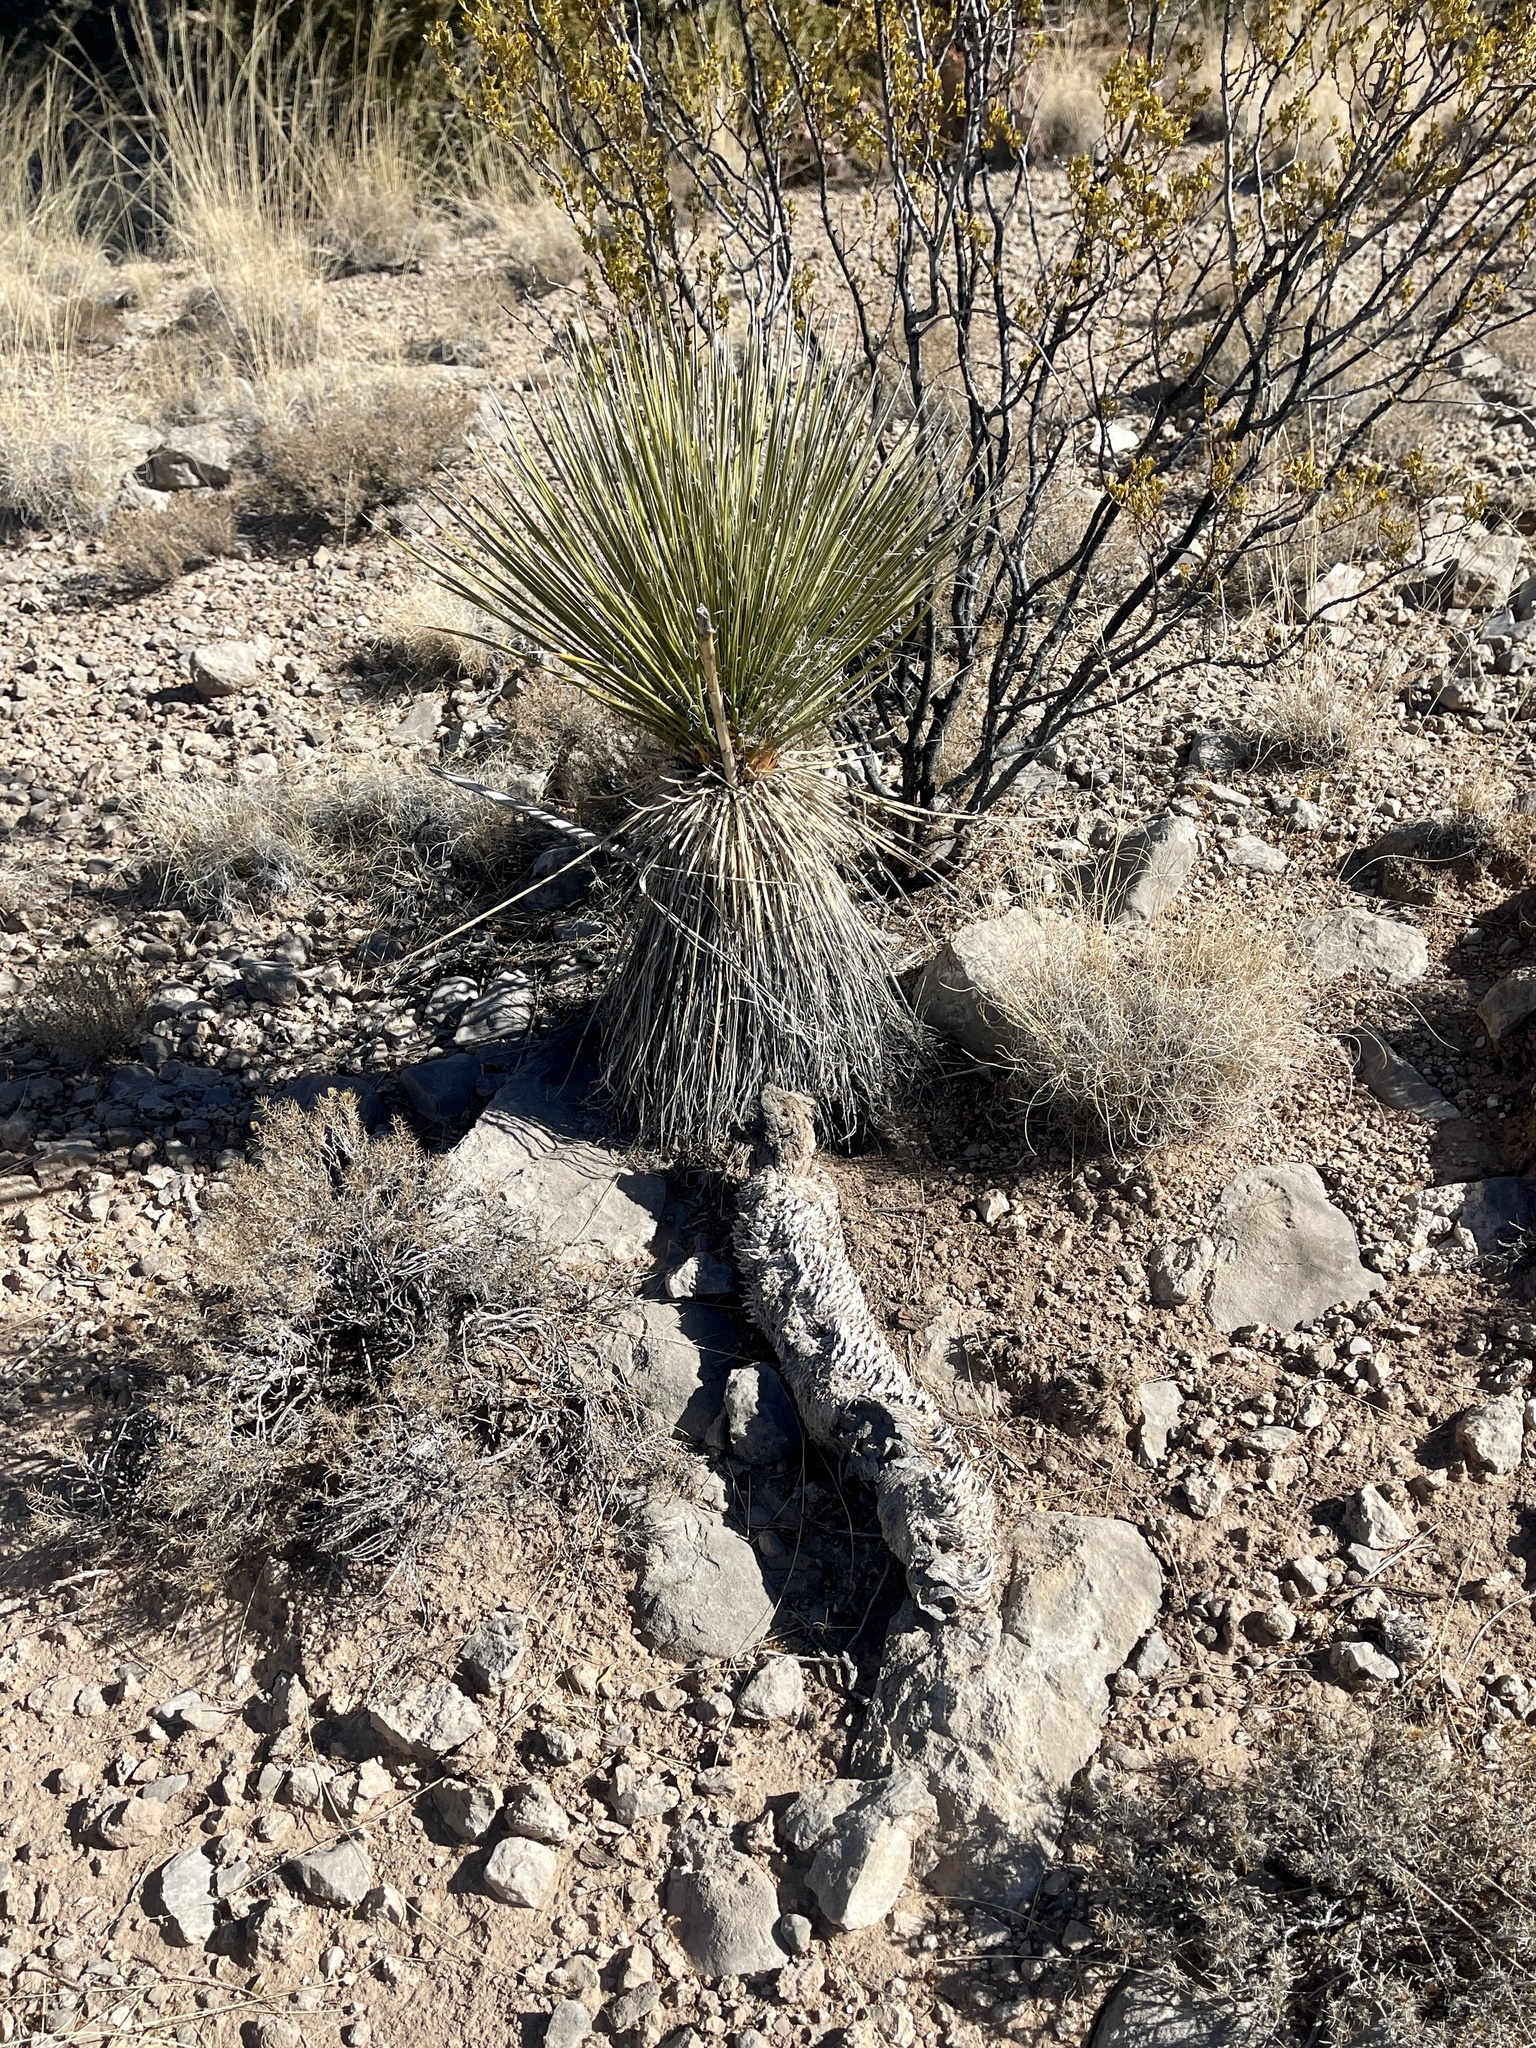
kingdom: Plantae
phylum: Tracheophyta
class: Liliopsida
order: Asparagales
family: Asparagaceae
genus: Yucca
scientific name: Yucca elata
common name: Palmella
